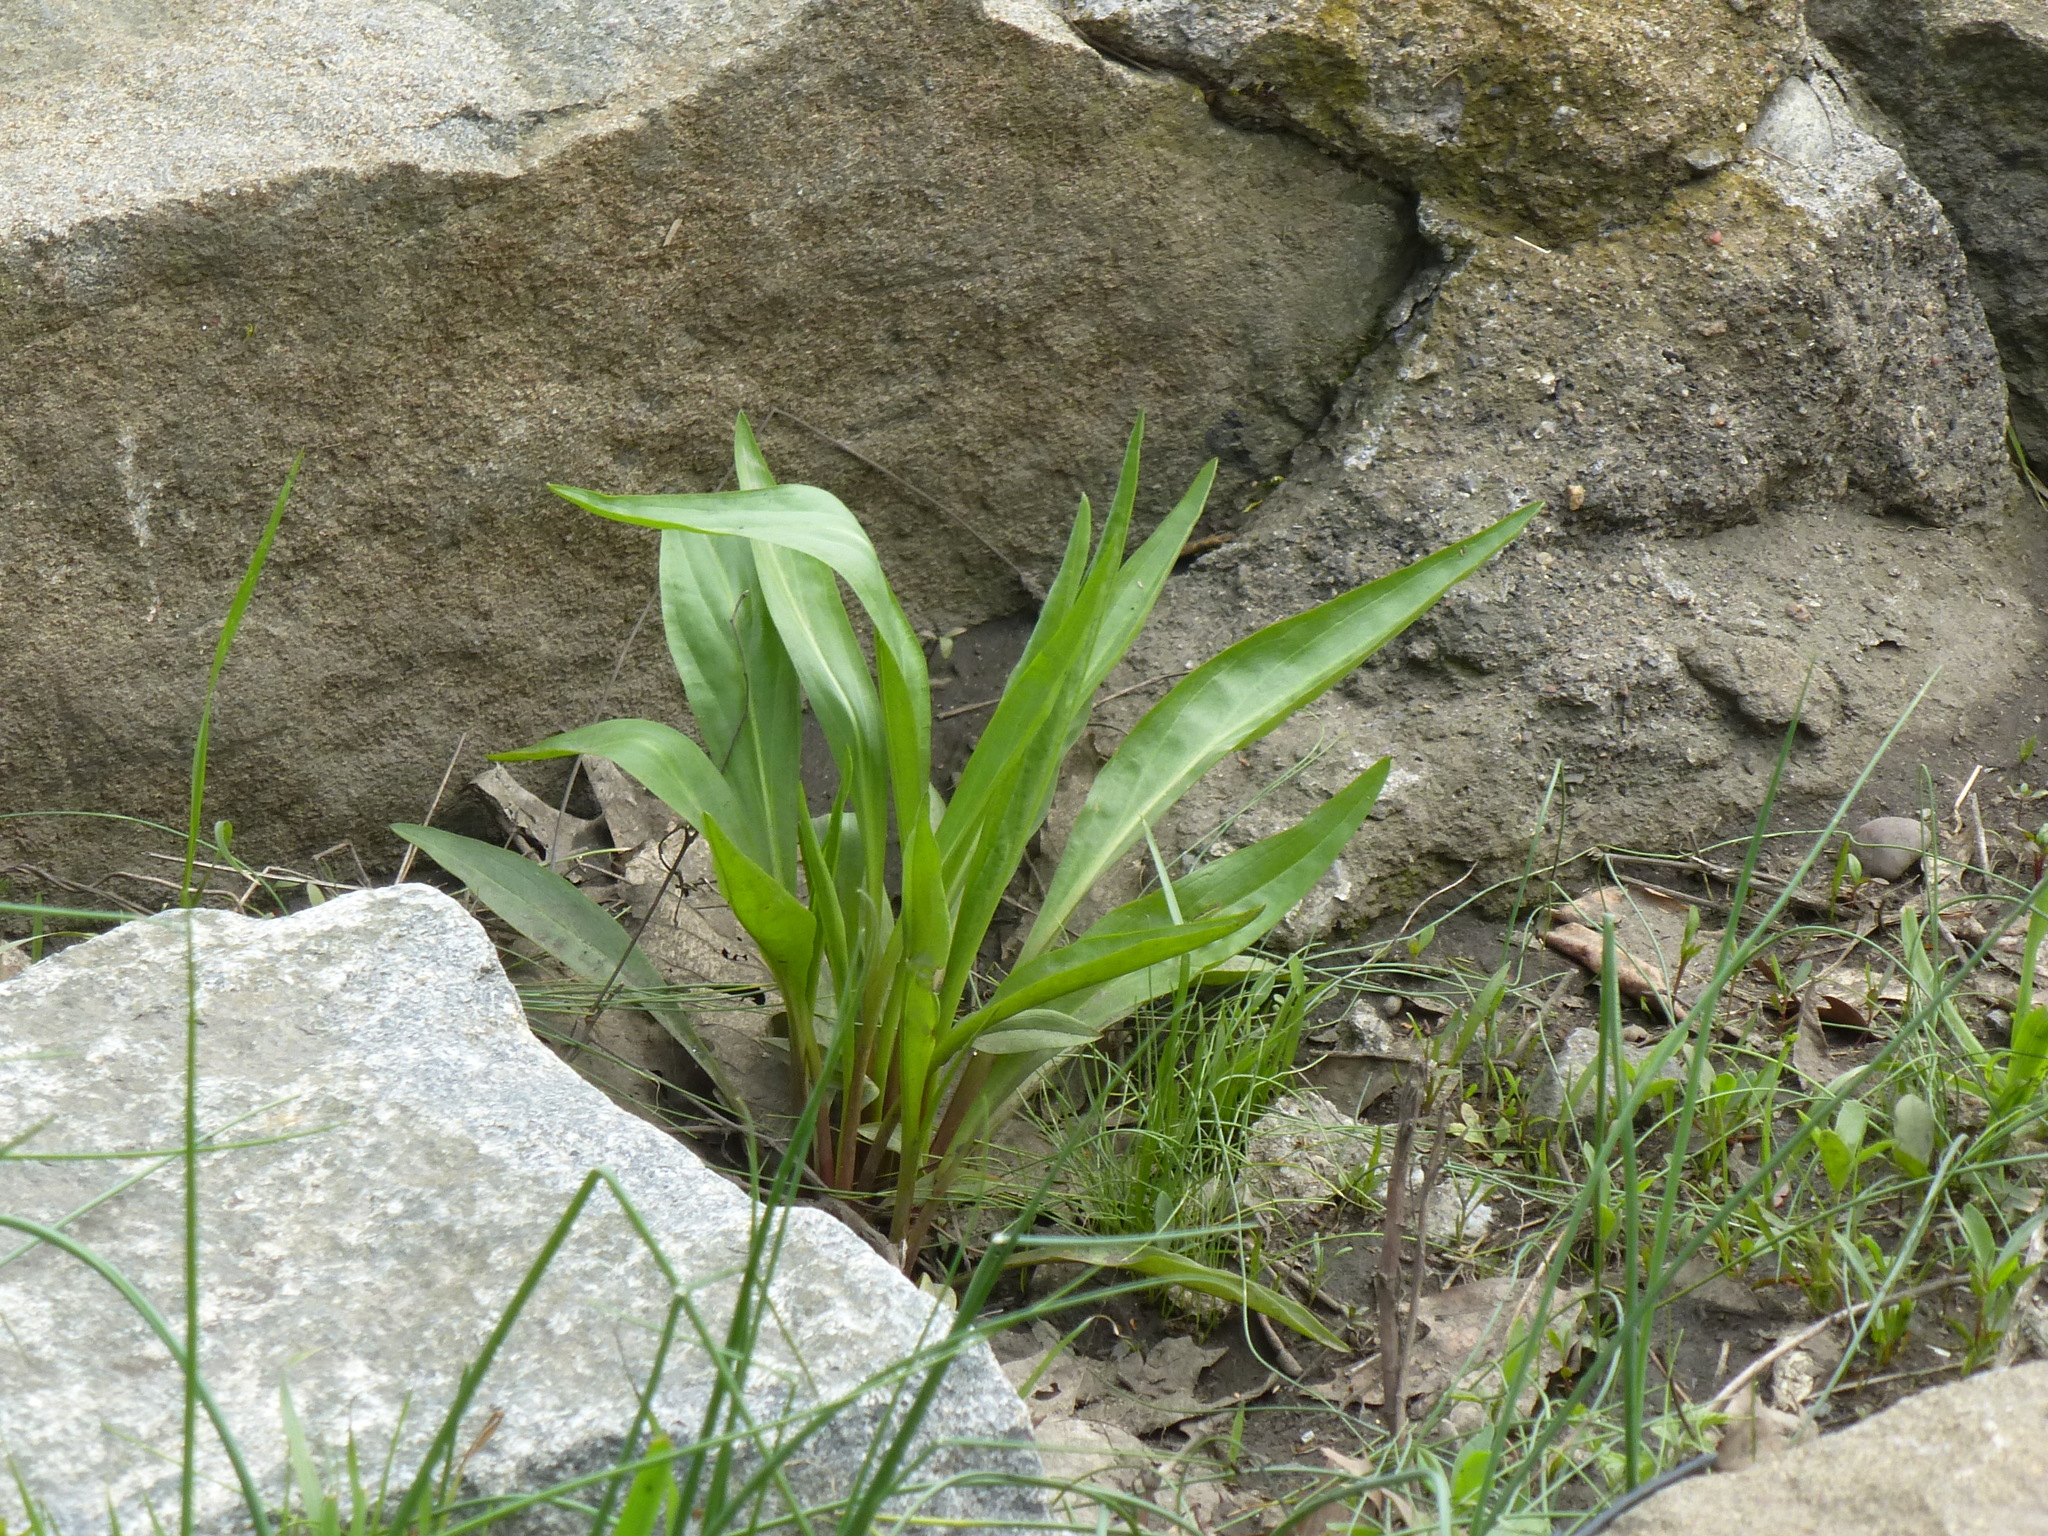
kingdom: Plantae
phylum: Tracheophyta
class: Magnoliopsida
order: Asterales
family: Asteraceae
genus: Solidago
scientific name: Solidago sempervirens
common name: Salt-marsh goldenrod
